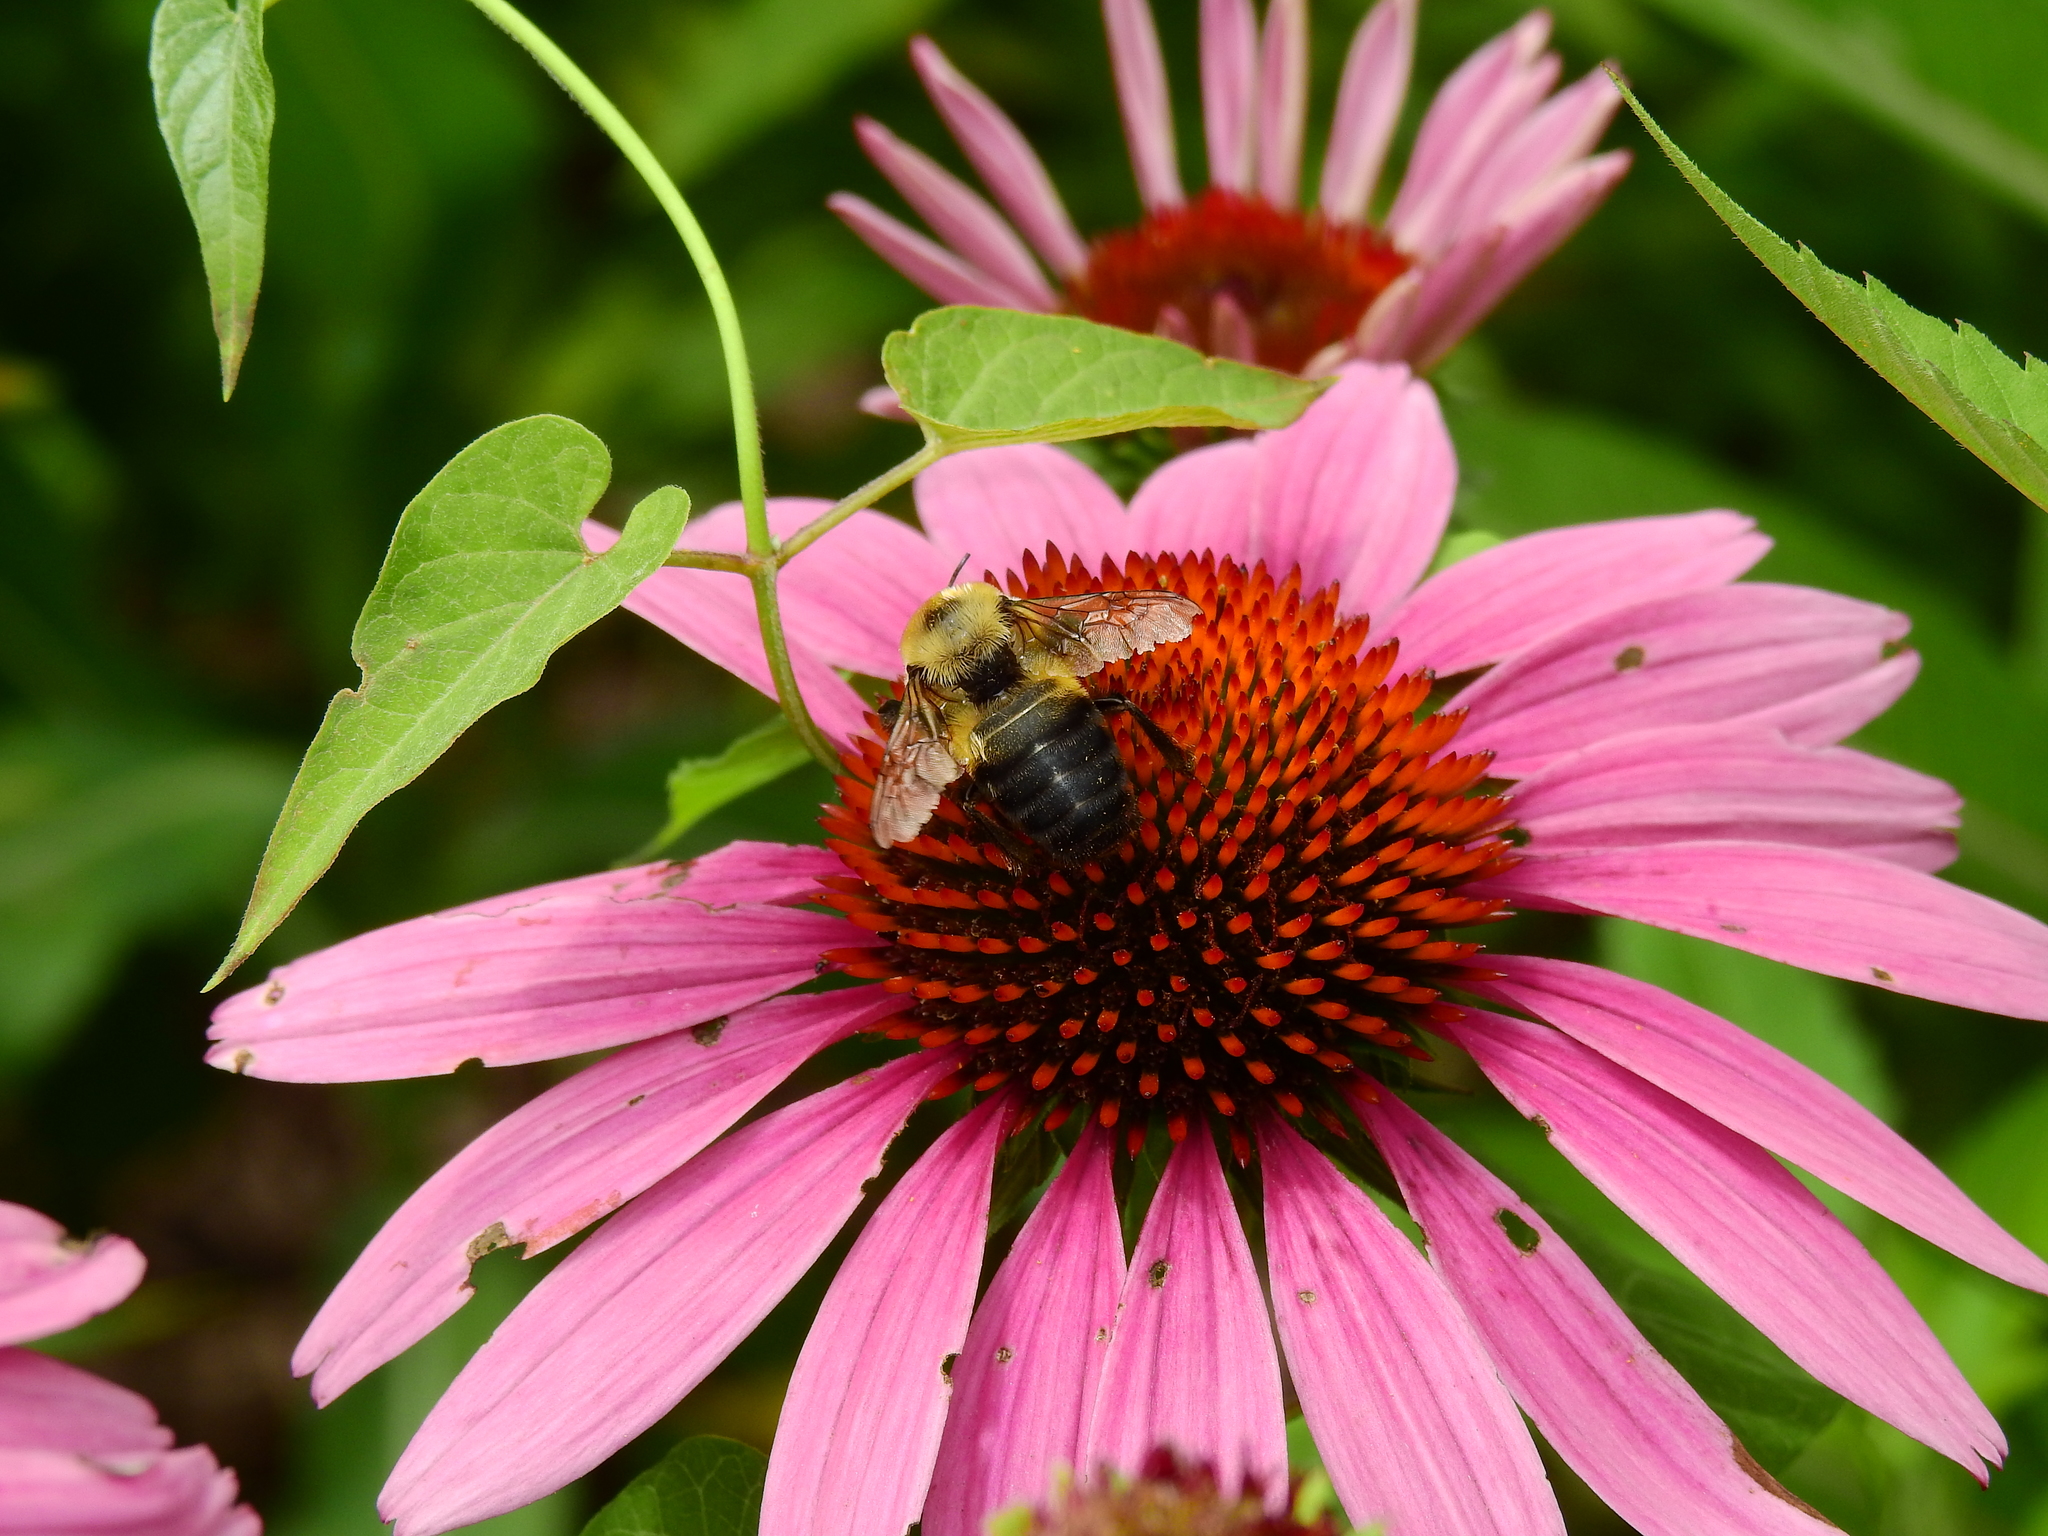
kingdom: Animalia
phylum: Arthropoda
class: Insecta
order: Hymenoptera
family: Apidae
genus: Bombus
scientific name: Bombus griseocollis
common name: Brown-belted bumble bee
